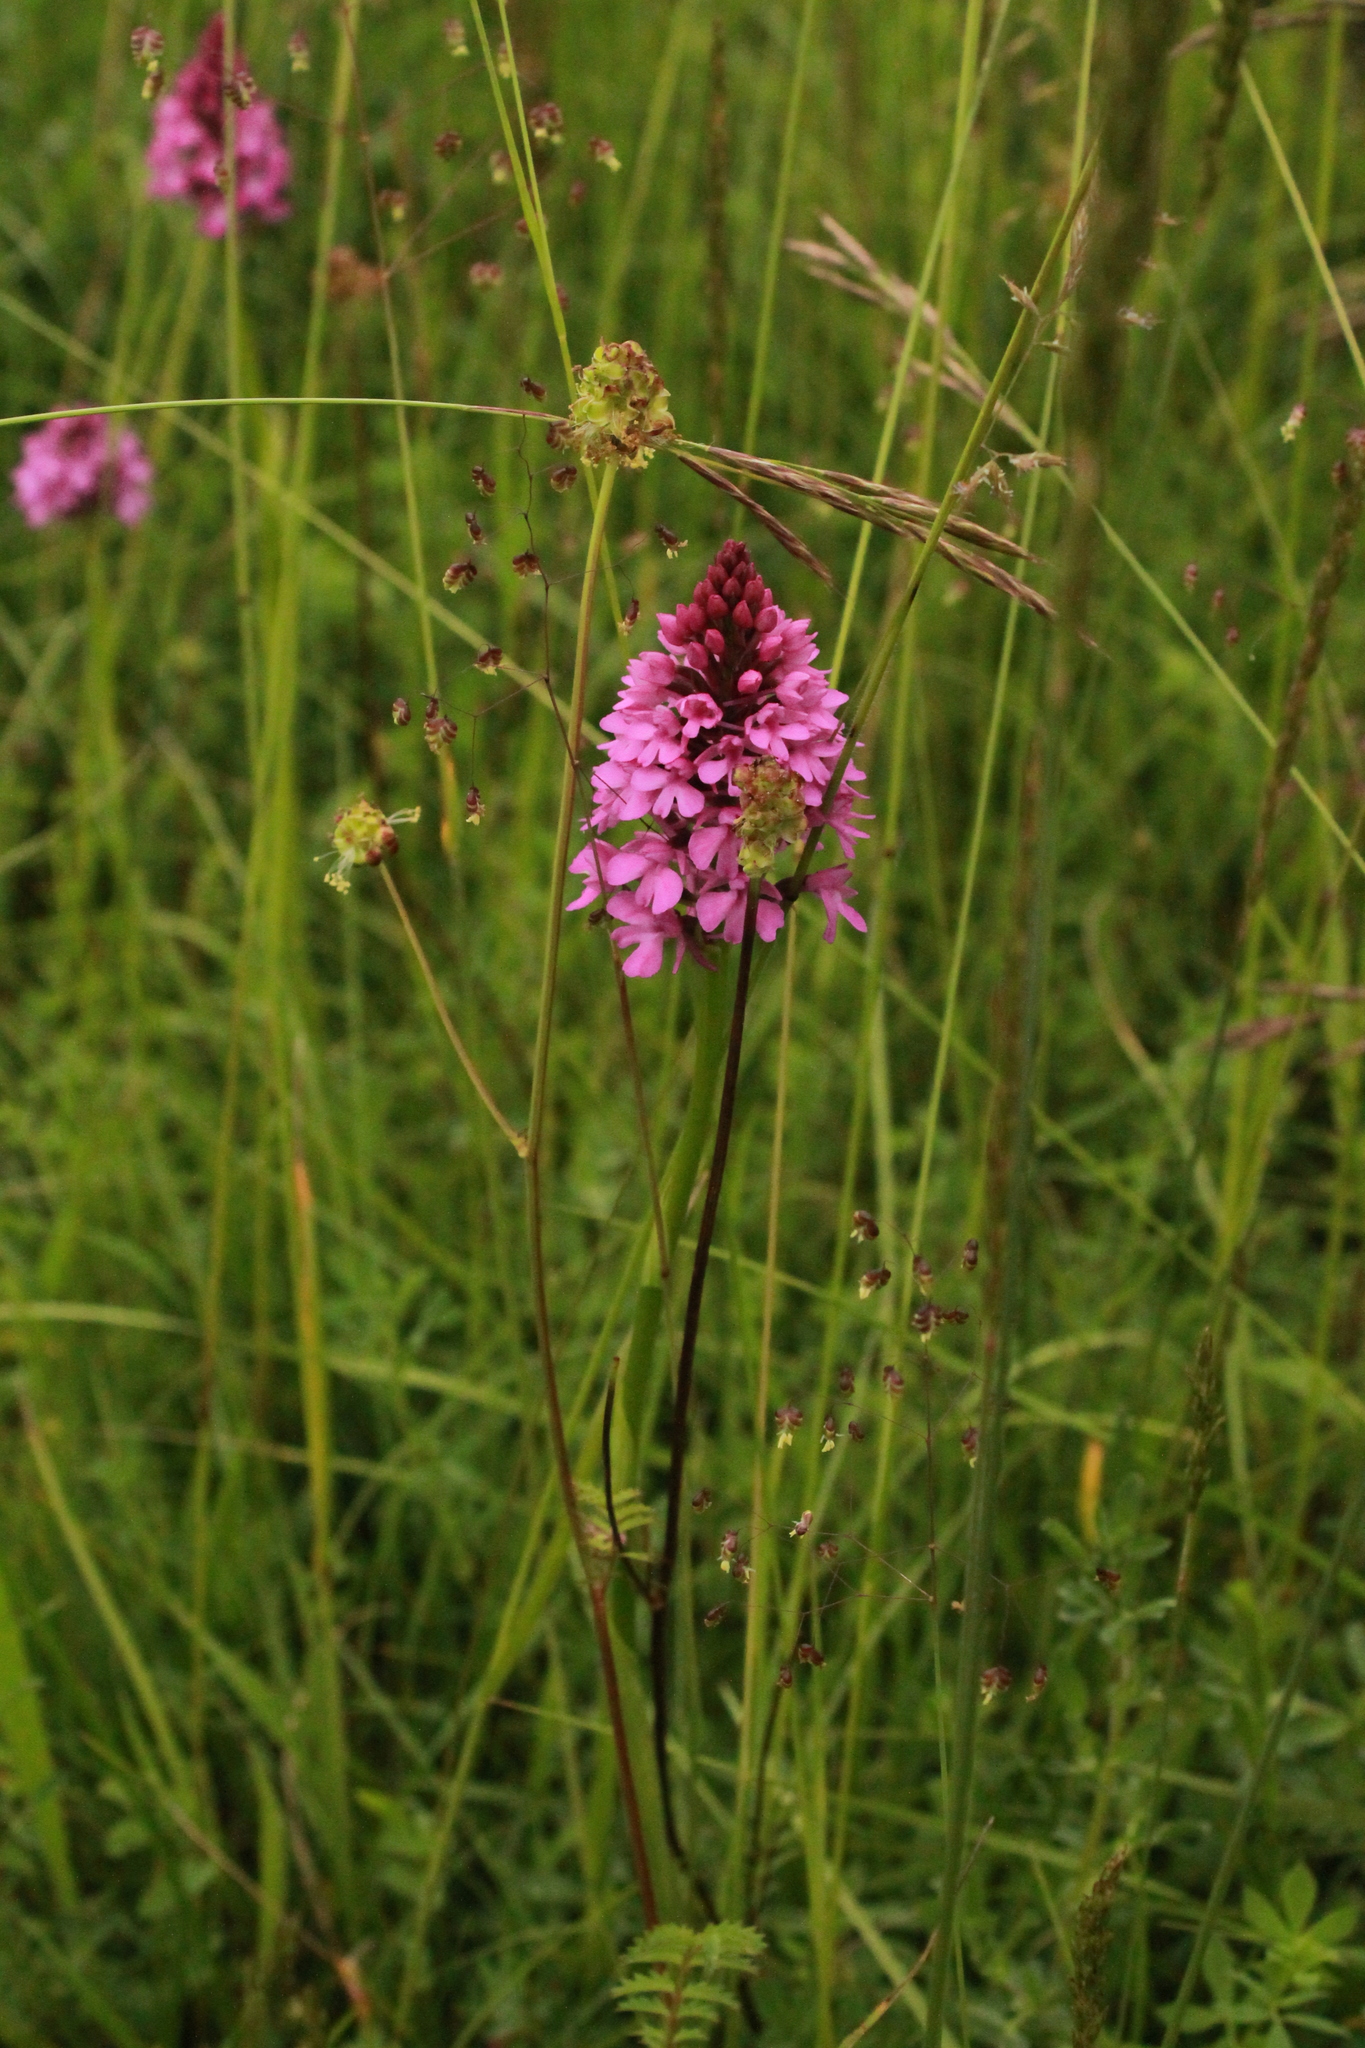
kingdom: Plantae
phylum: Tracheophyta
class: Liliopsida
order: Asparagales
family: Orchidaceae
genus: Anacamptis
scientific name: Anacamptis pyramidalis
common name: Pyramidal orchid
